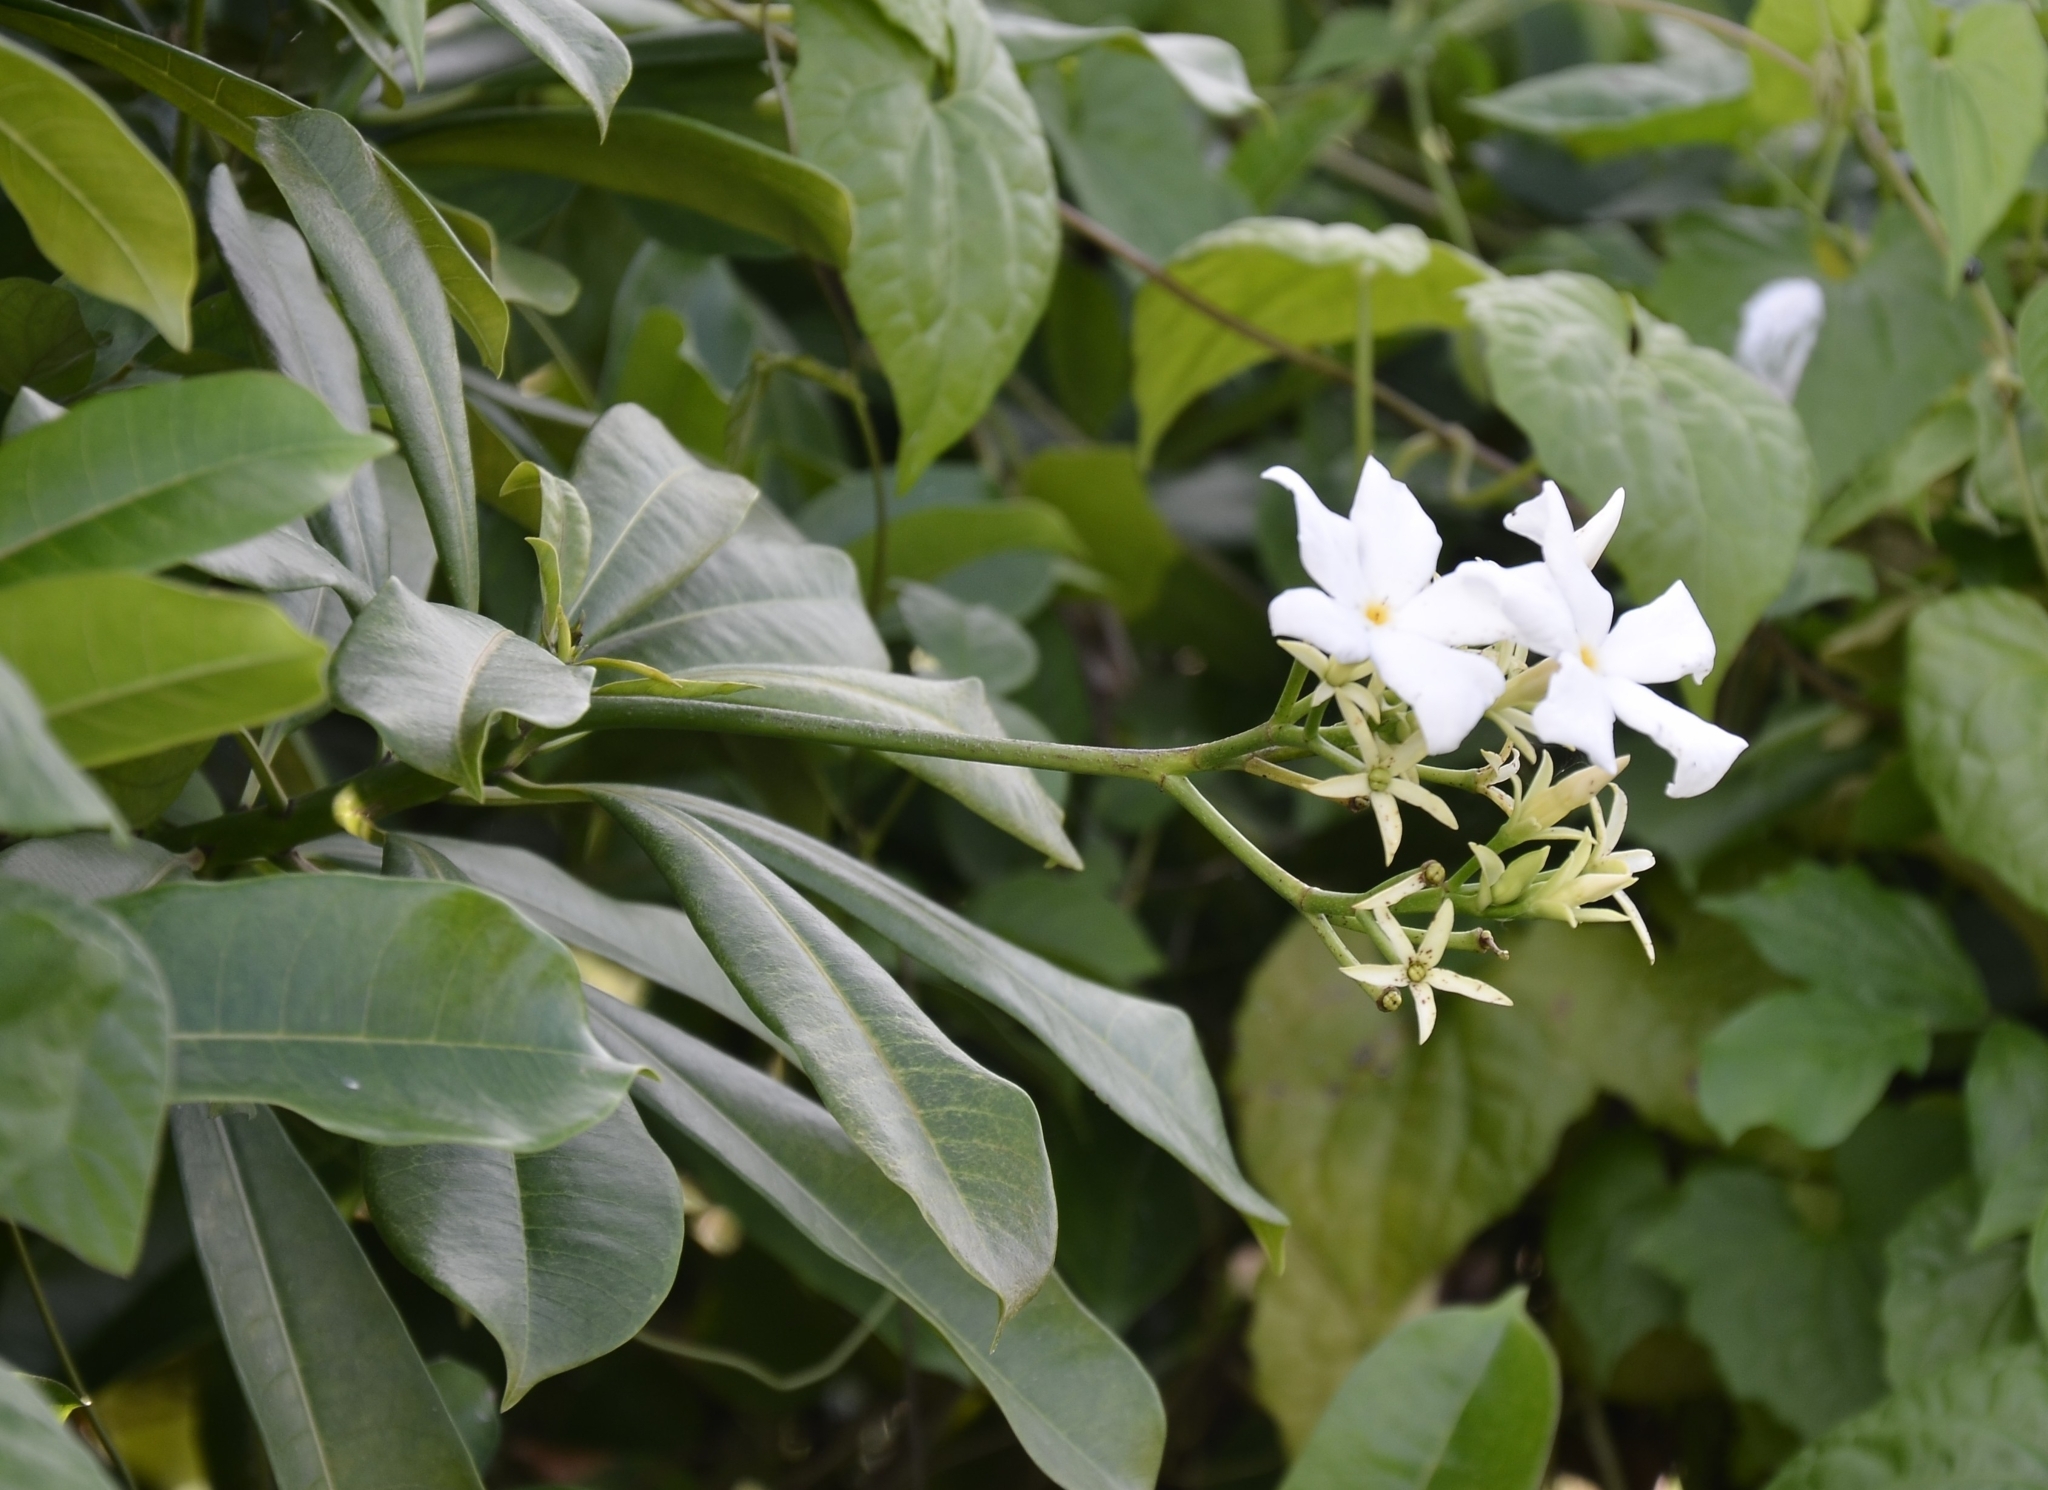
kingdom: Plantae
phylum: Tracheophyta
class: Magnoliopsida
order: Gentianales
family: Apocynaceae
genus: Cerbera
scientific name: Cerbera odollam
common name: Pong-pong
